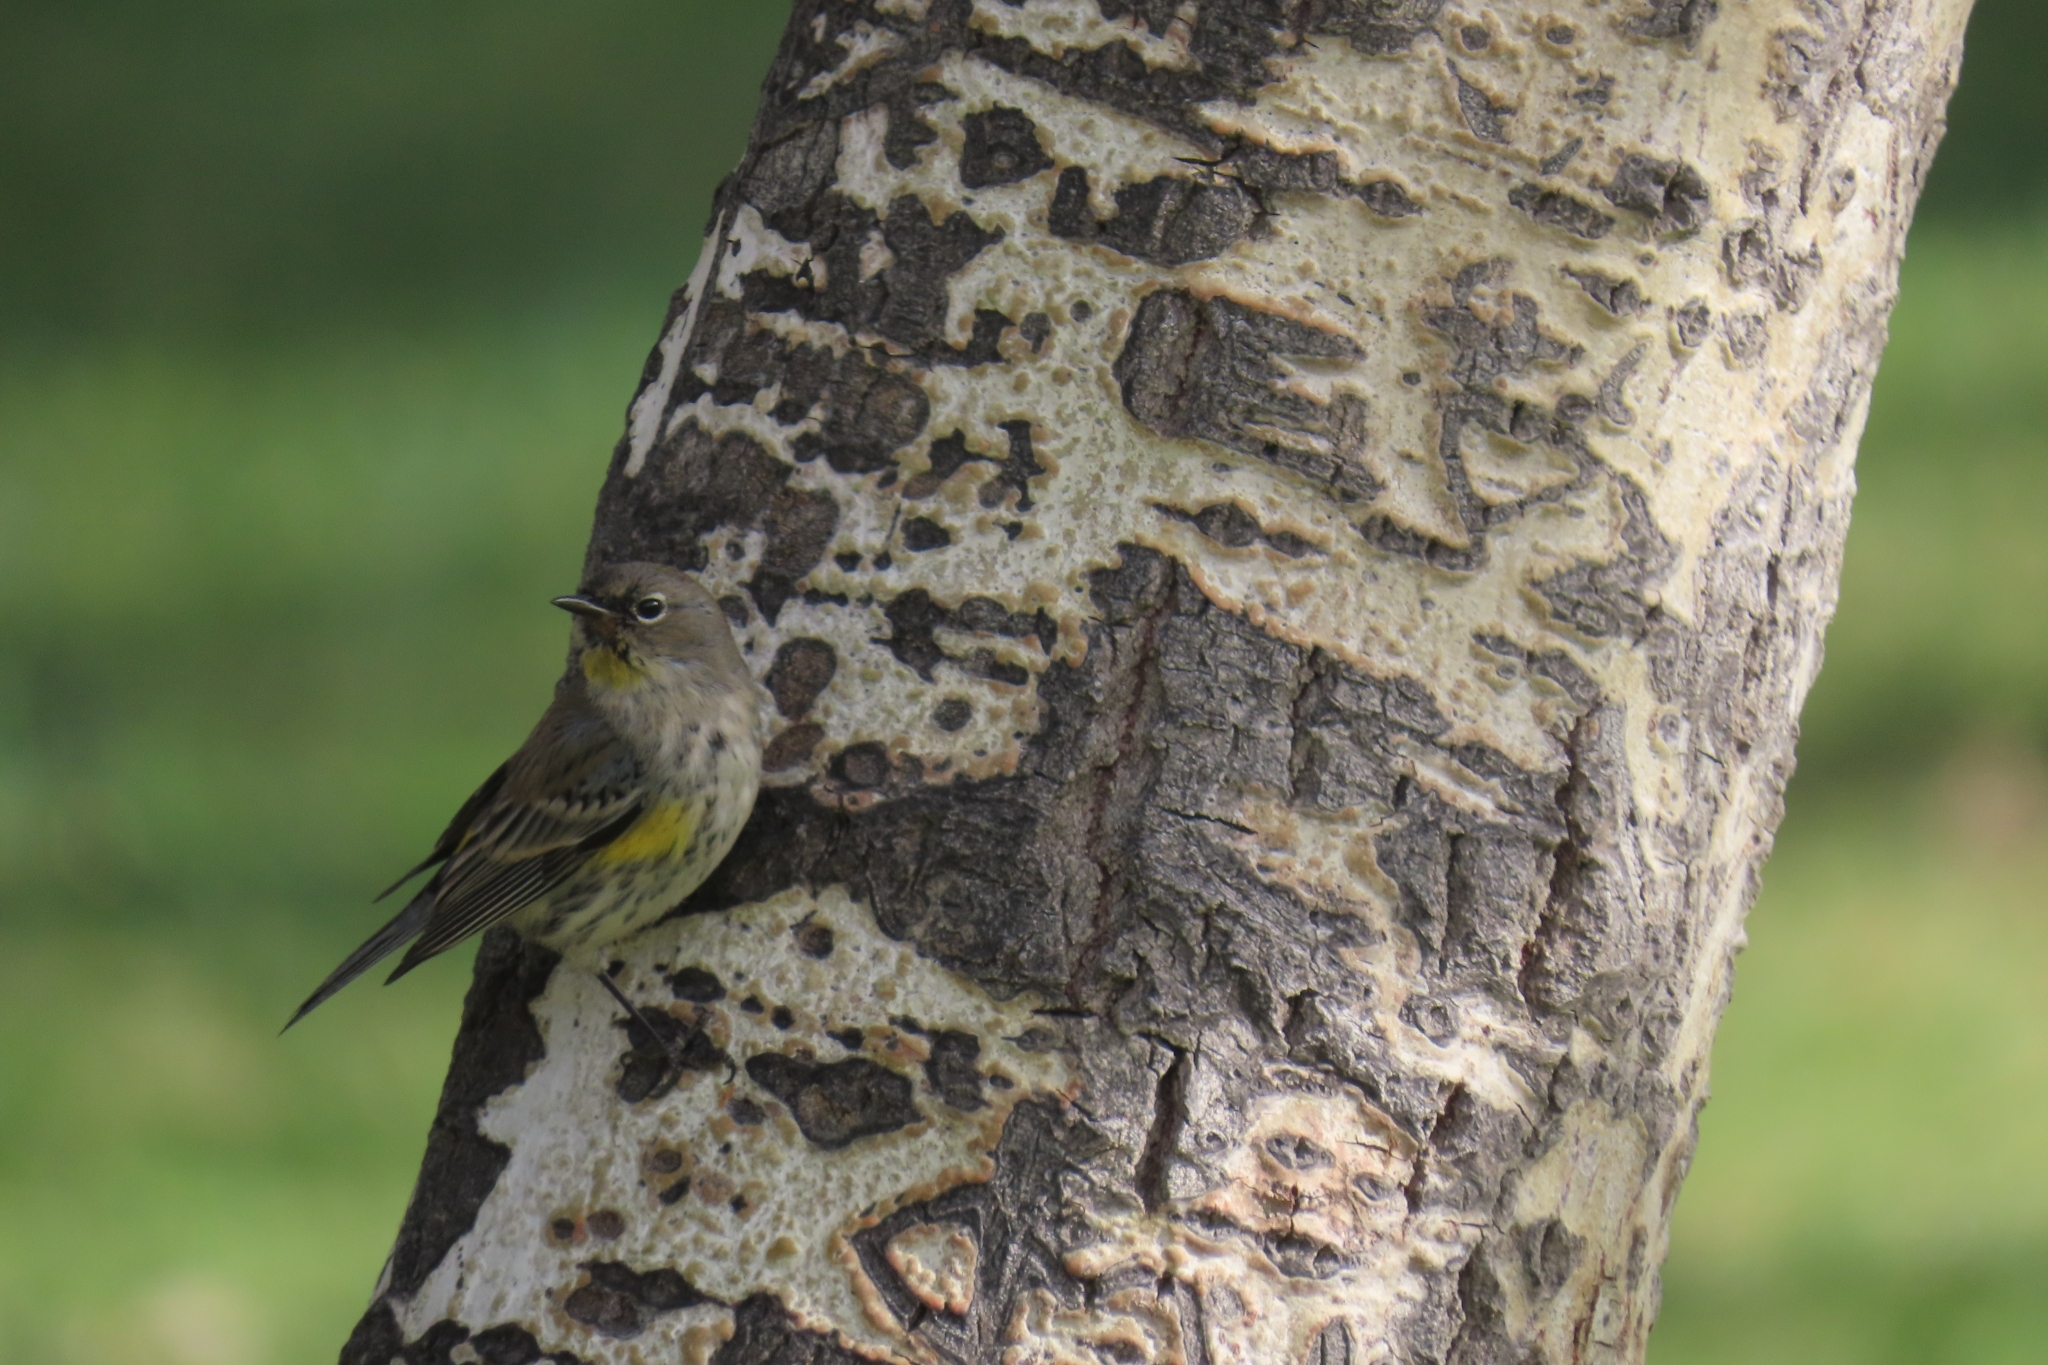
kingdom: Animalia
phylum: Chordata
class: Aves
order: Passeriformes
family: Parulidae
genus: Setophaga
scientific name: Setophaga auduboni
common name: Audubon's warbler
